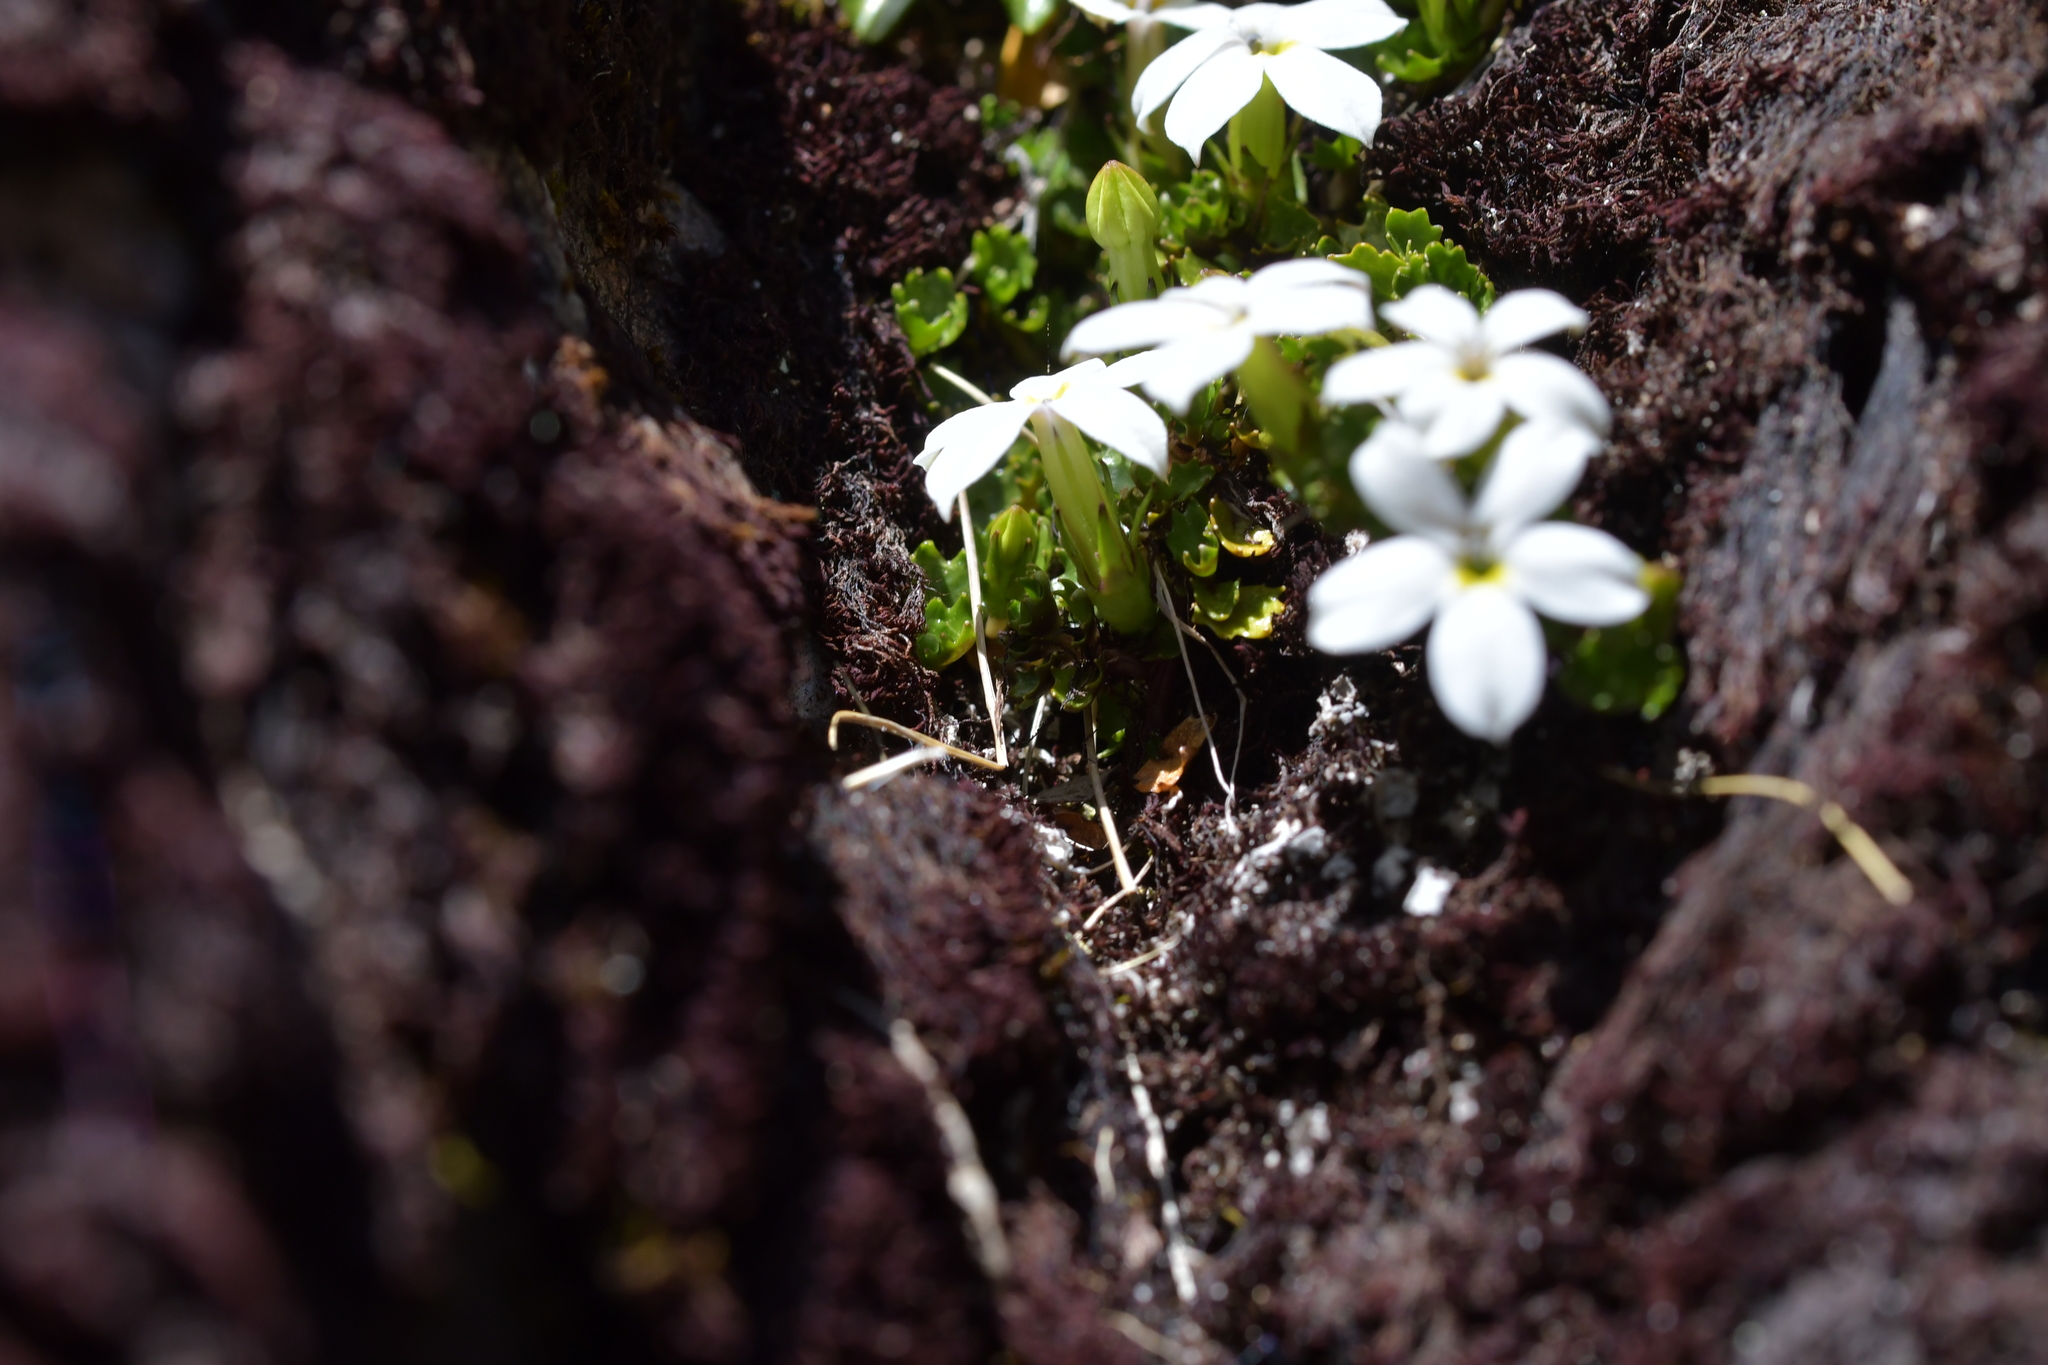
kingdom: Plantae
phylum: Tracheophyta
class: Magnoliopsida
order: Asterales
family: Campanulaceae
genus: Lobelia
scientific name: Lobelia macrodon
